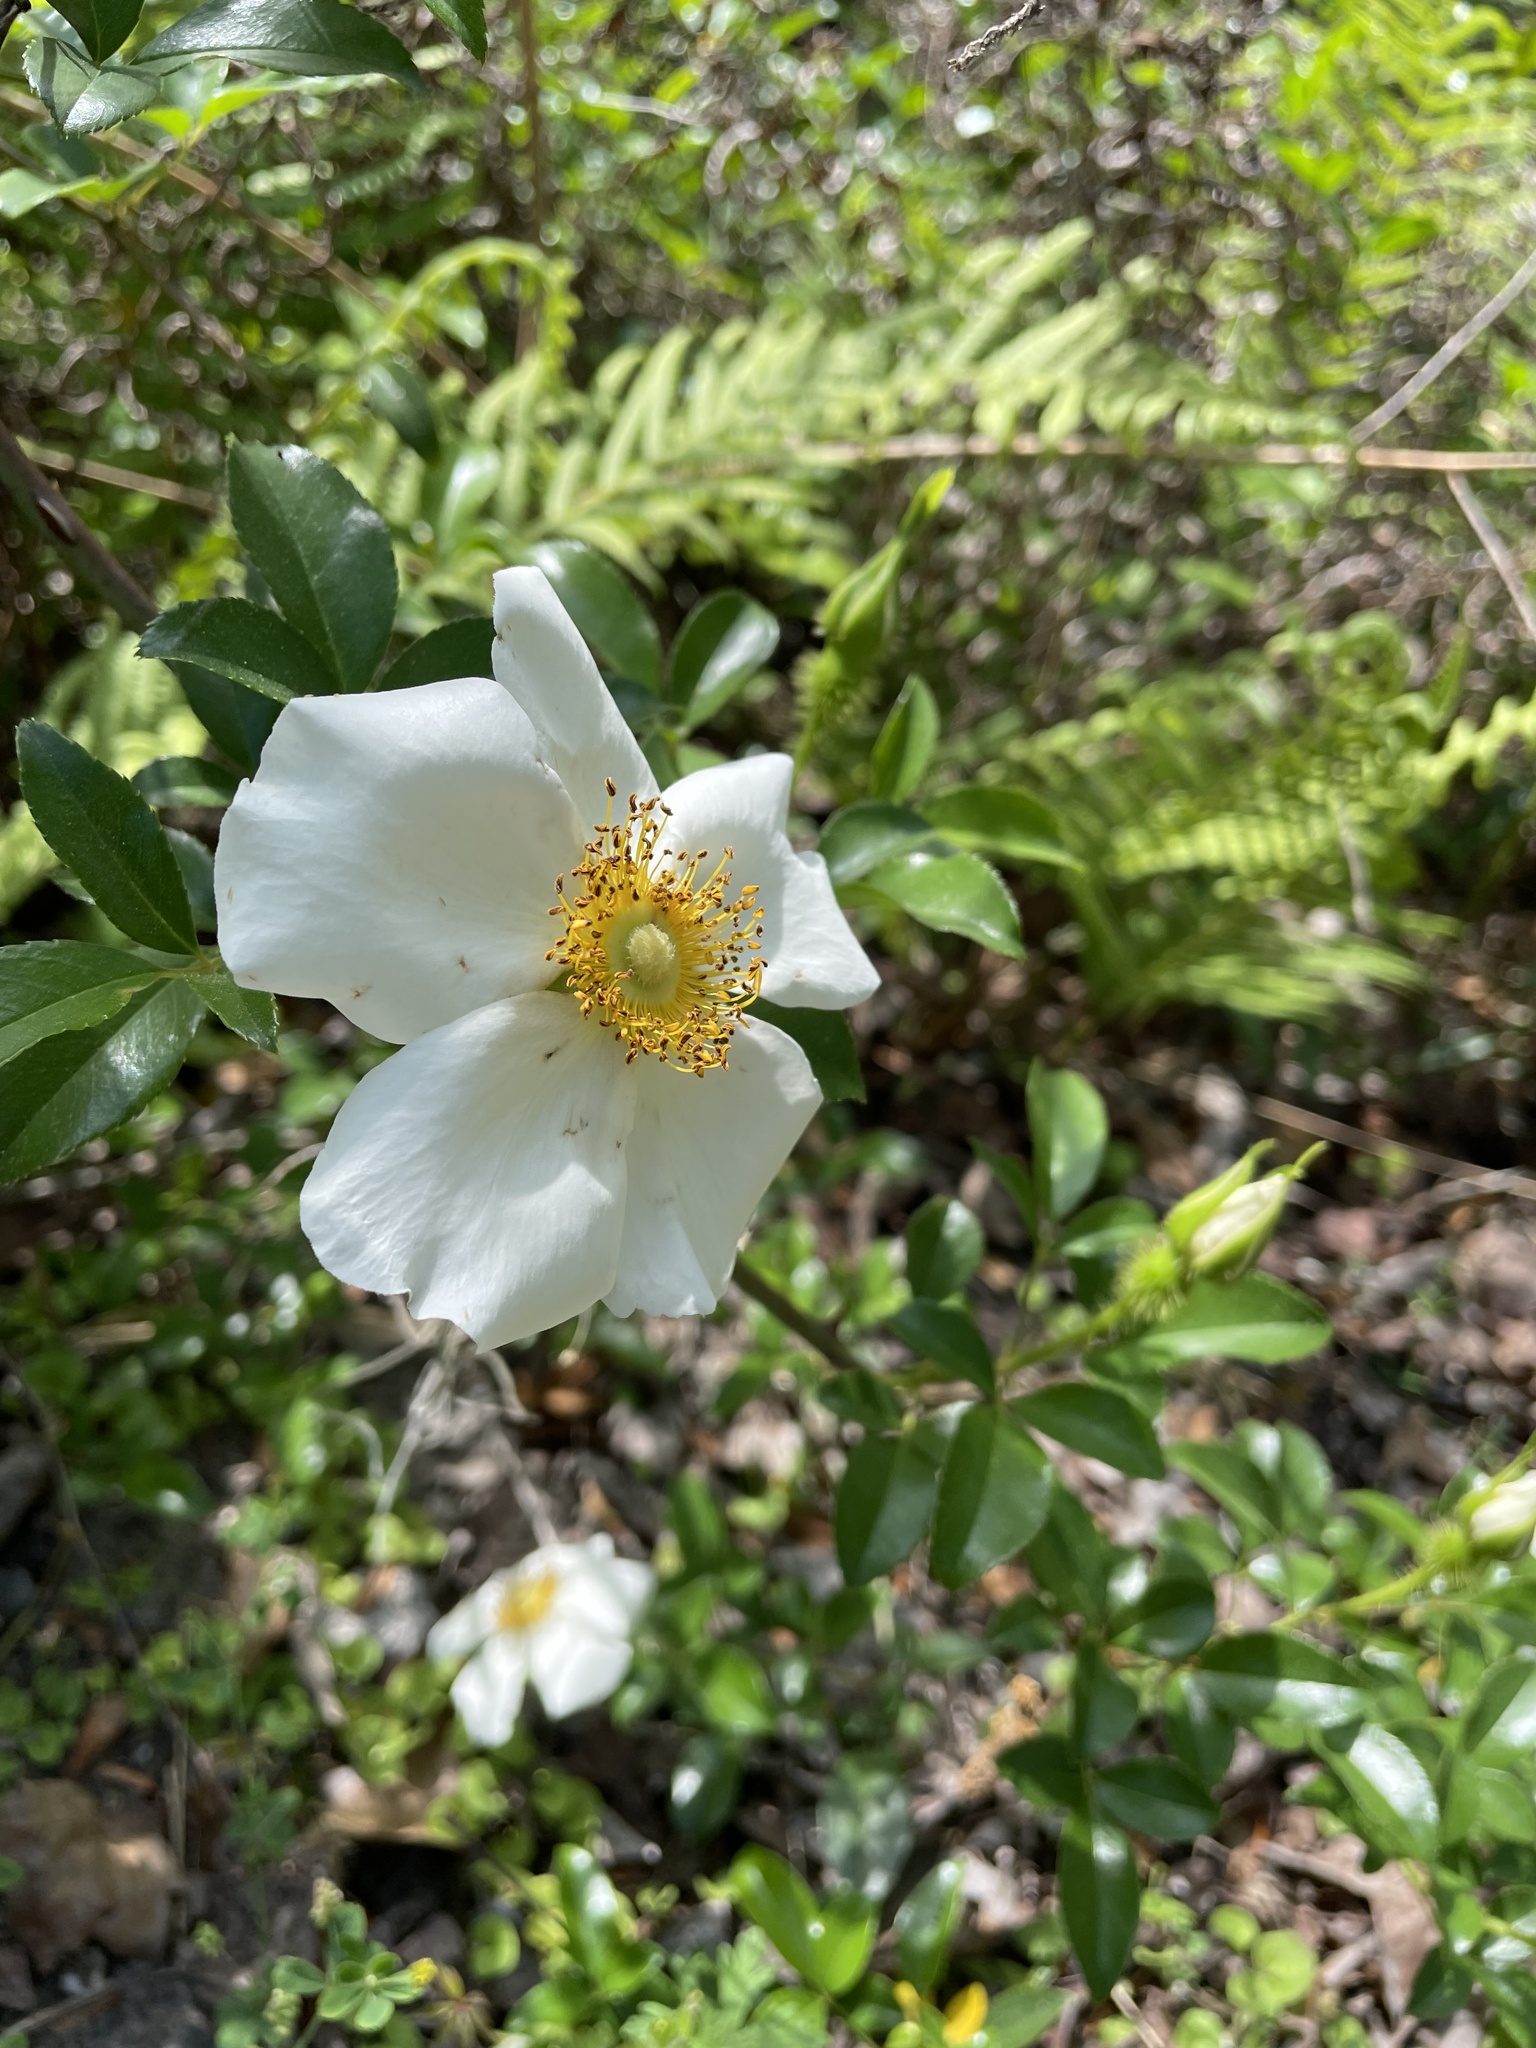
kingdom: Plantae
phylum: Tracheophyta
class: Magnoliopsida
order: Rosales
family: Rosaceae
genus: Rosa
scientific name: Rosa laevigata
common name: Cherokee rose
